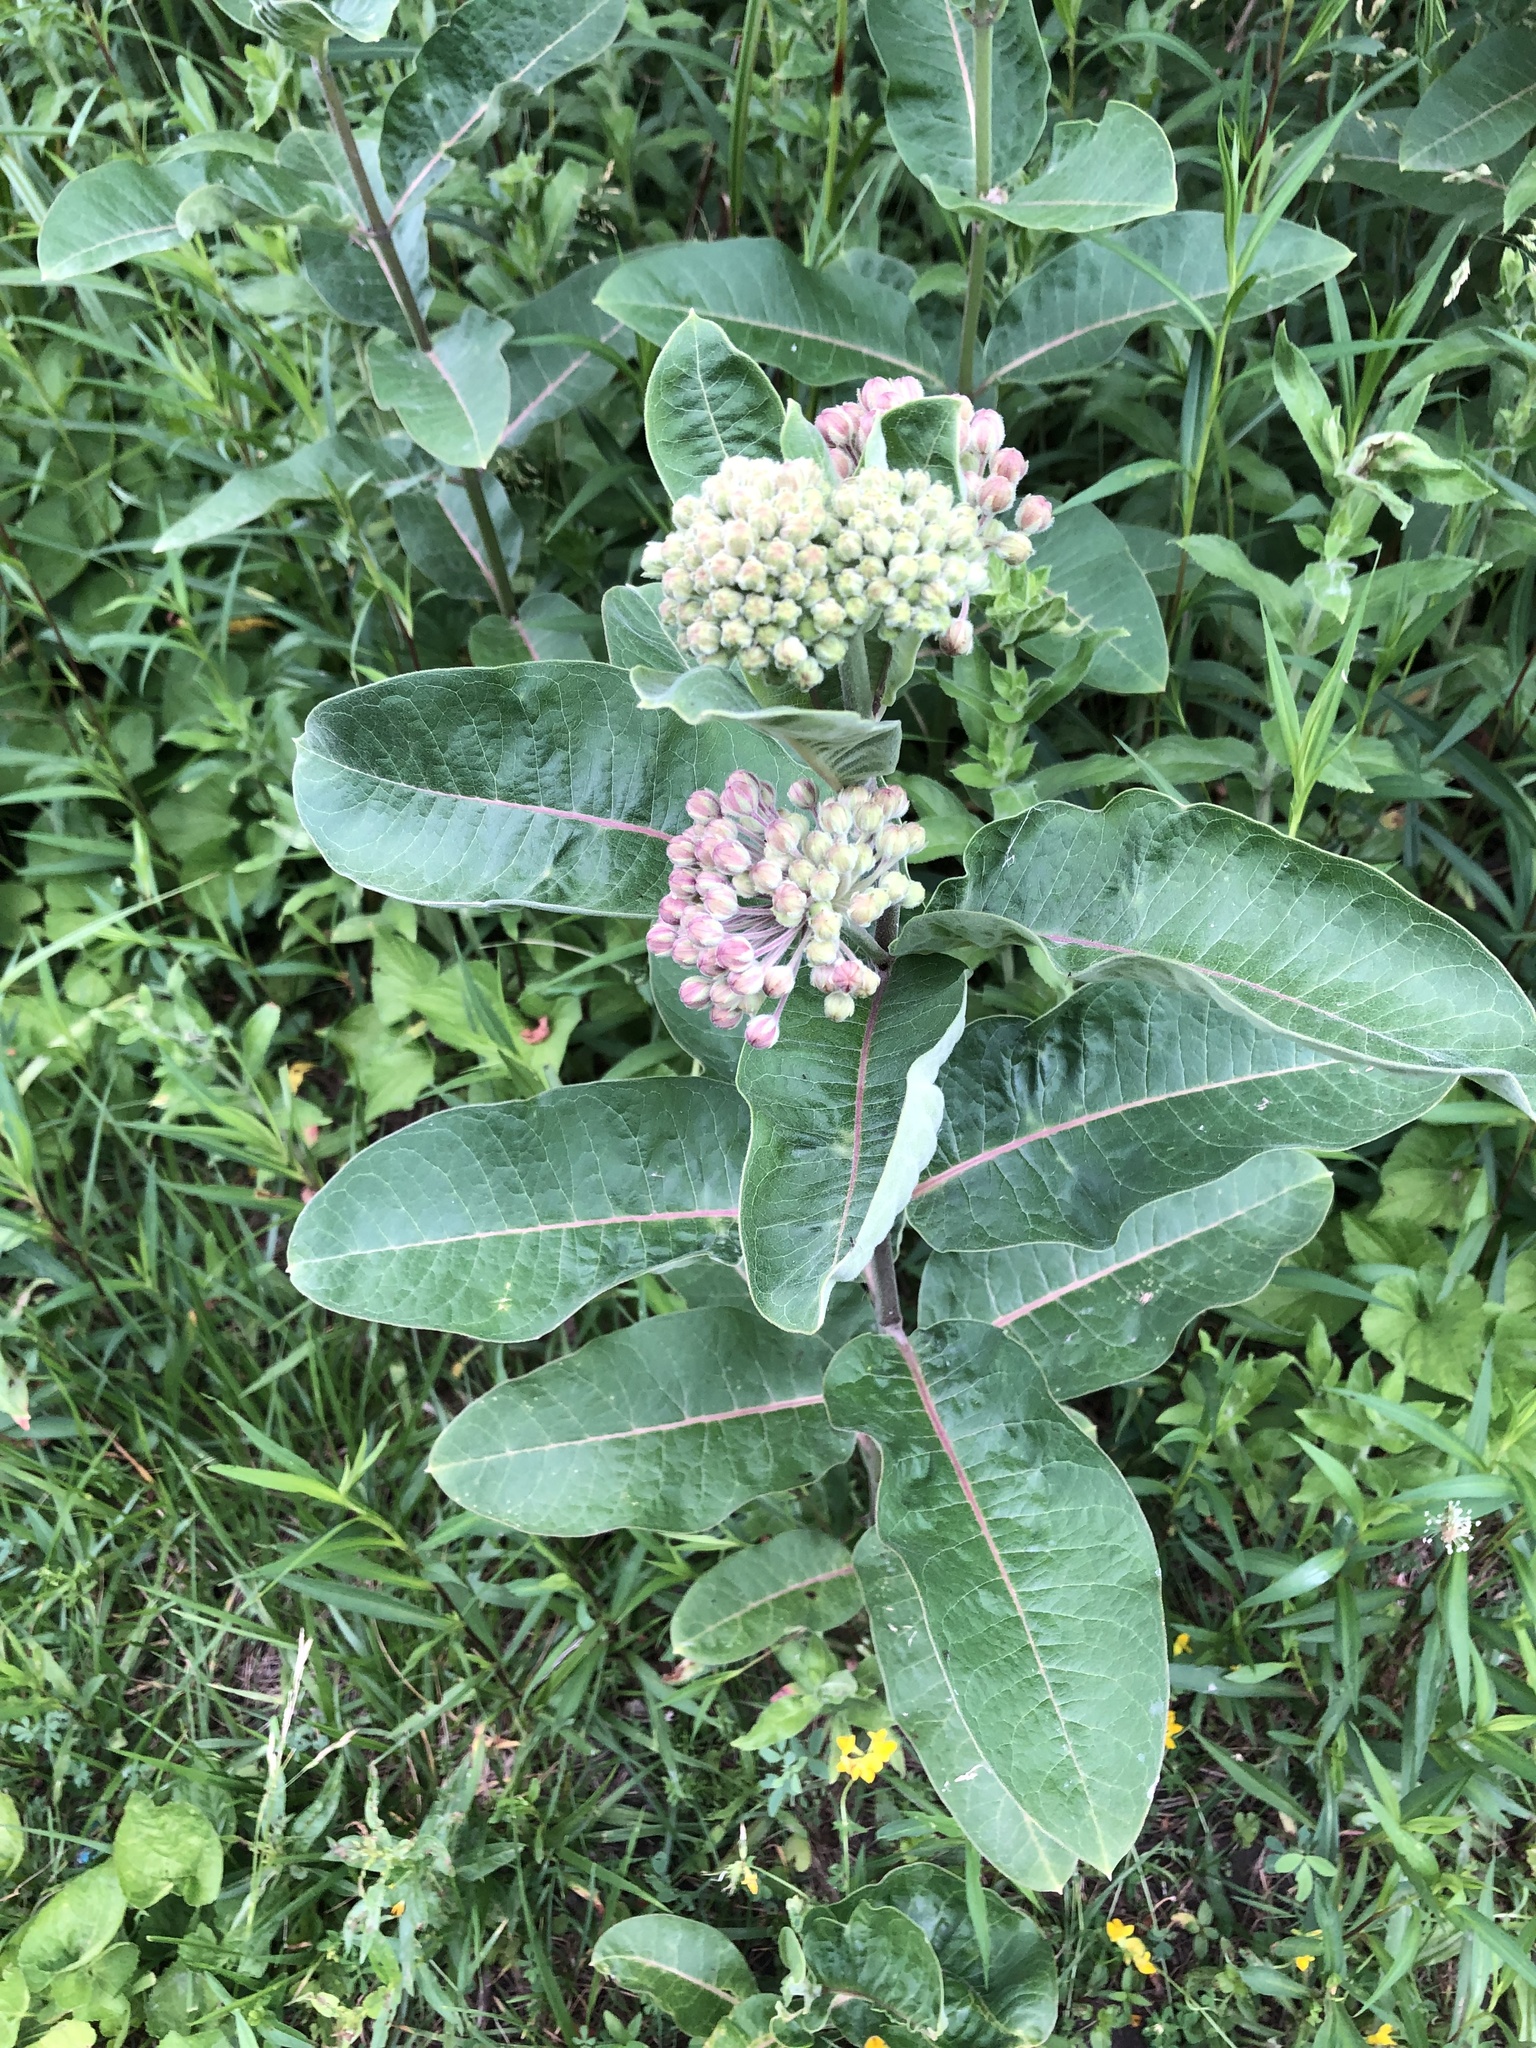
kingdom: Plantae
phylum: Tracheophyta
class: Magnoliopsida
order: Gentianales
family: Apocynaceae
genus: Asclepias
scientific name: Asclepias syriaca
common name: Common milkweed
